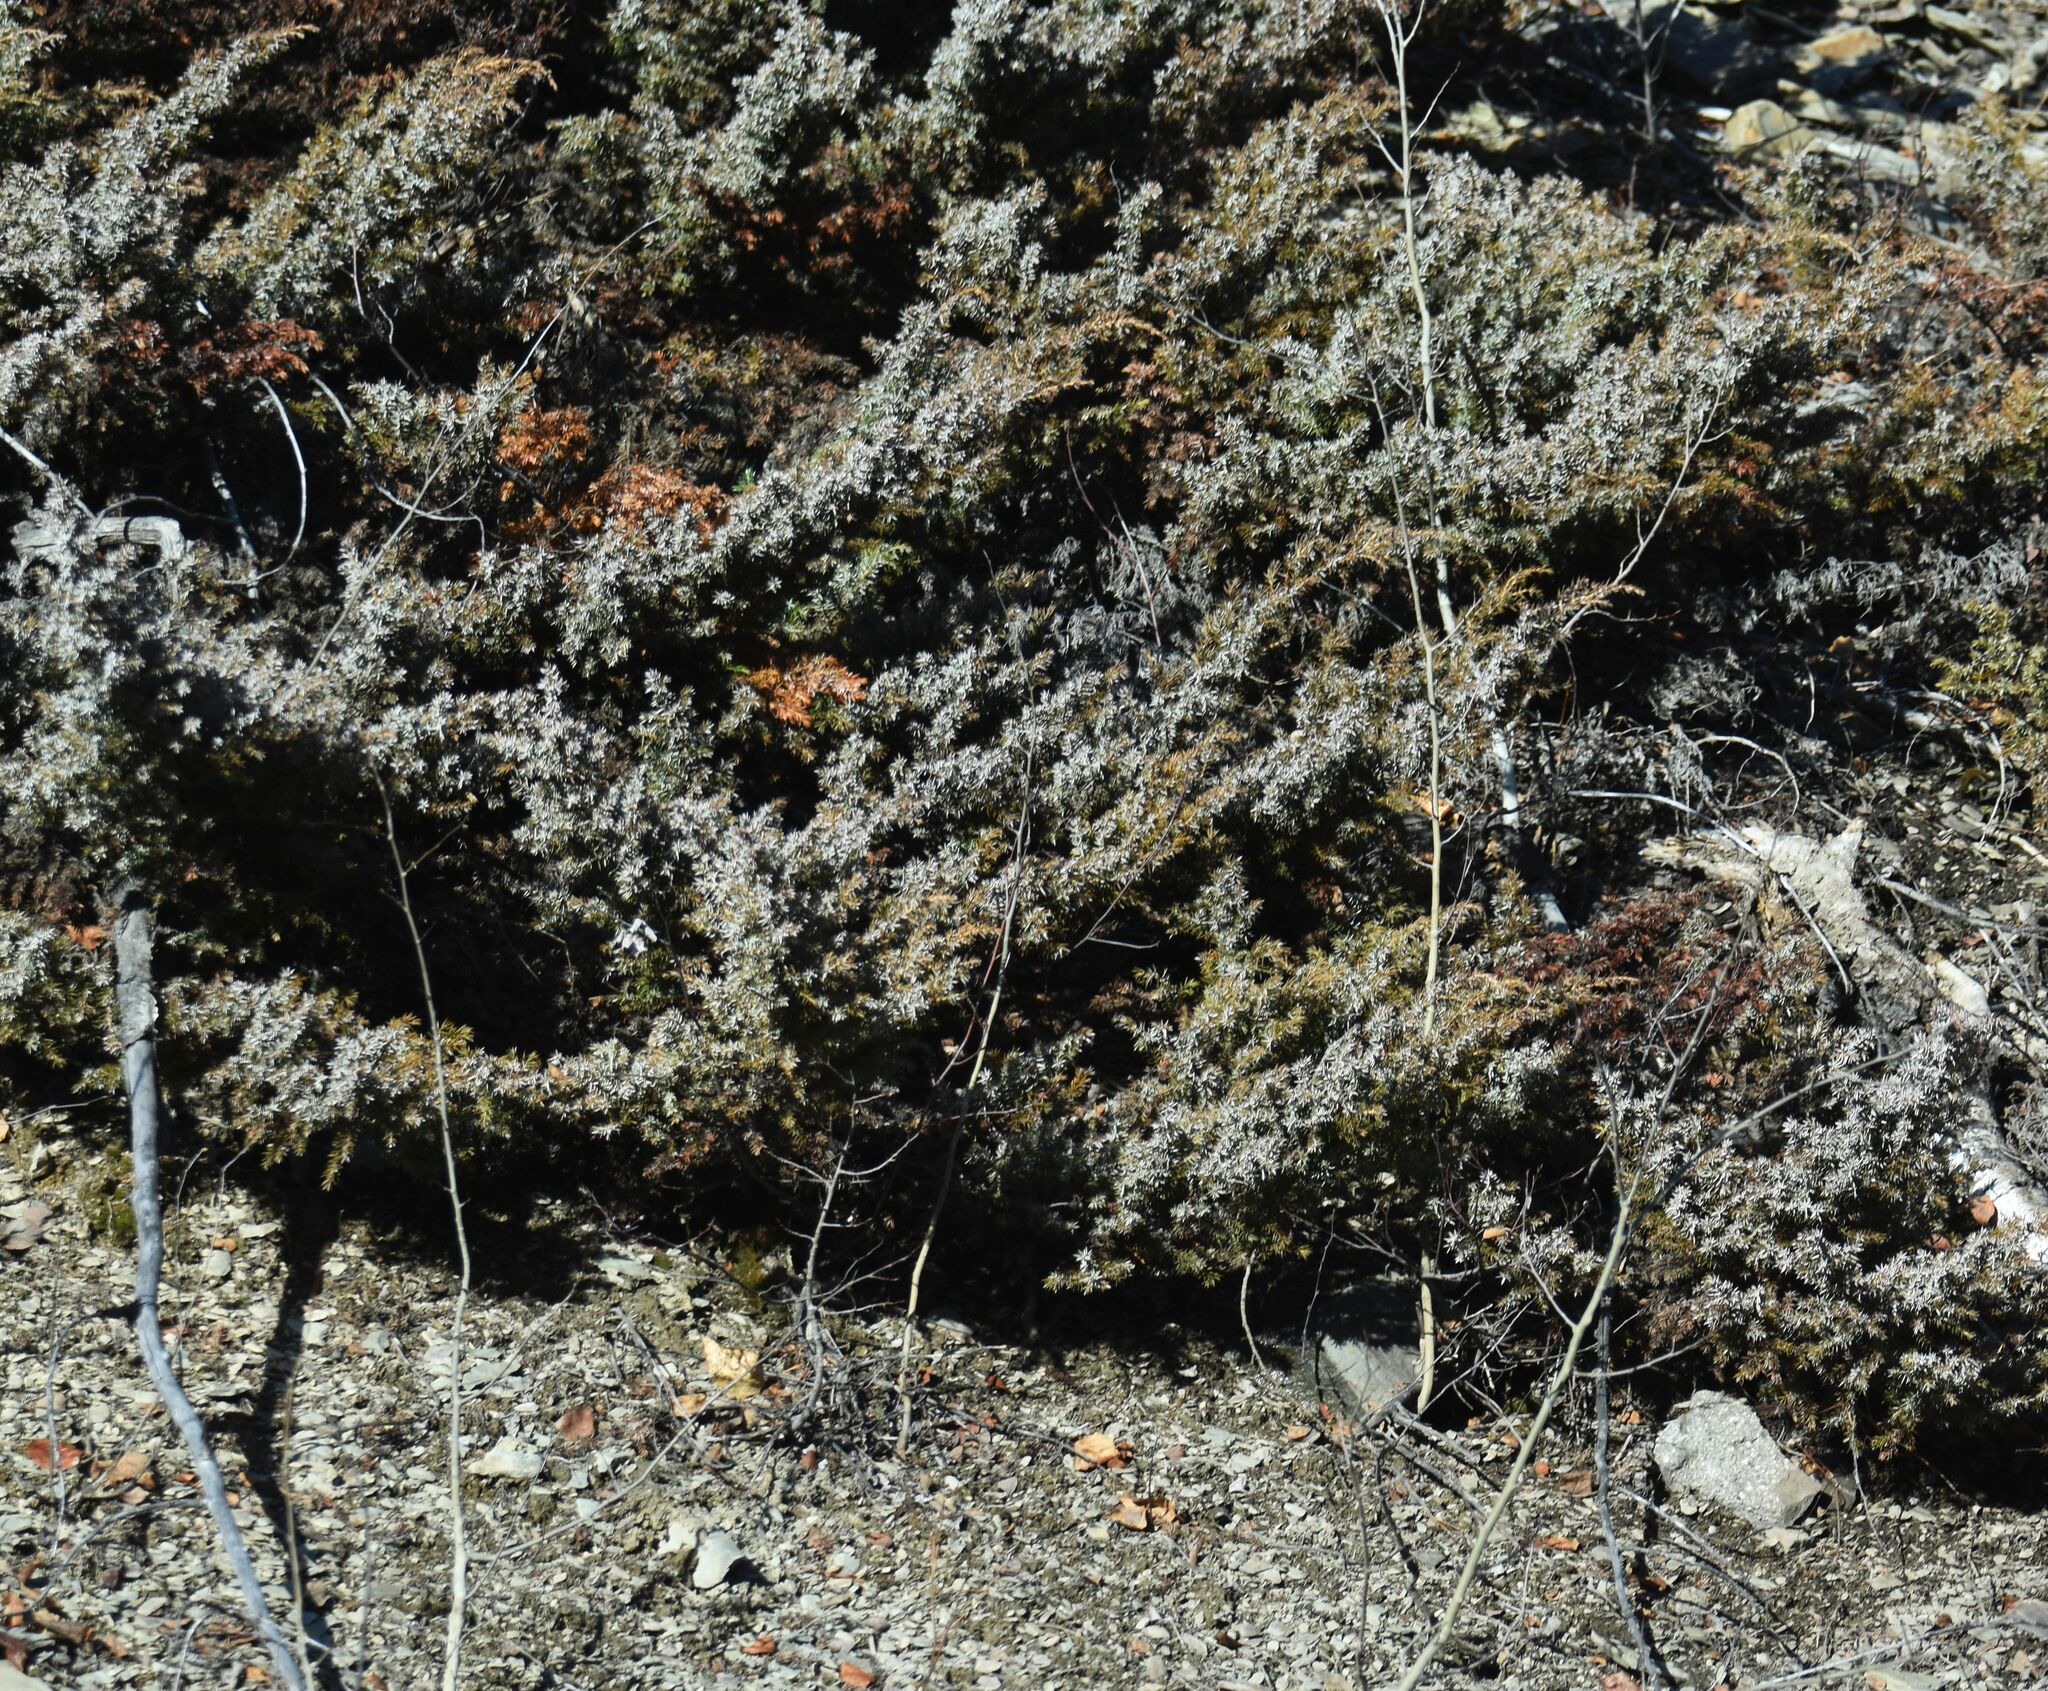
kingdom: Plantae
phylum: Tracheophyta
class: Pinopsida
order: Pinales
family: Cupressaceae
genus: Juniperus
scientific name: Juniperus communis
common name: Common juniper
